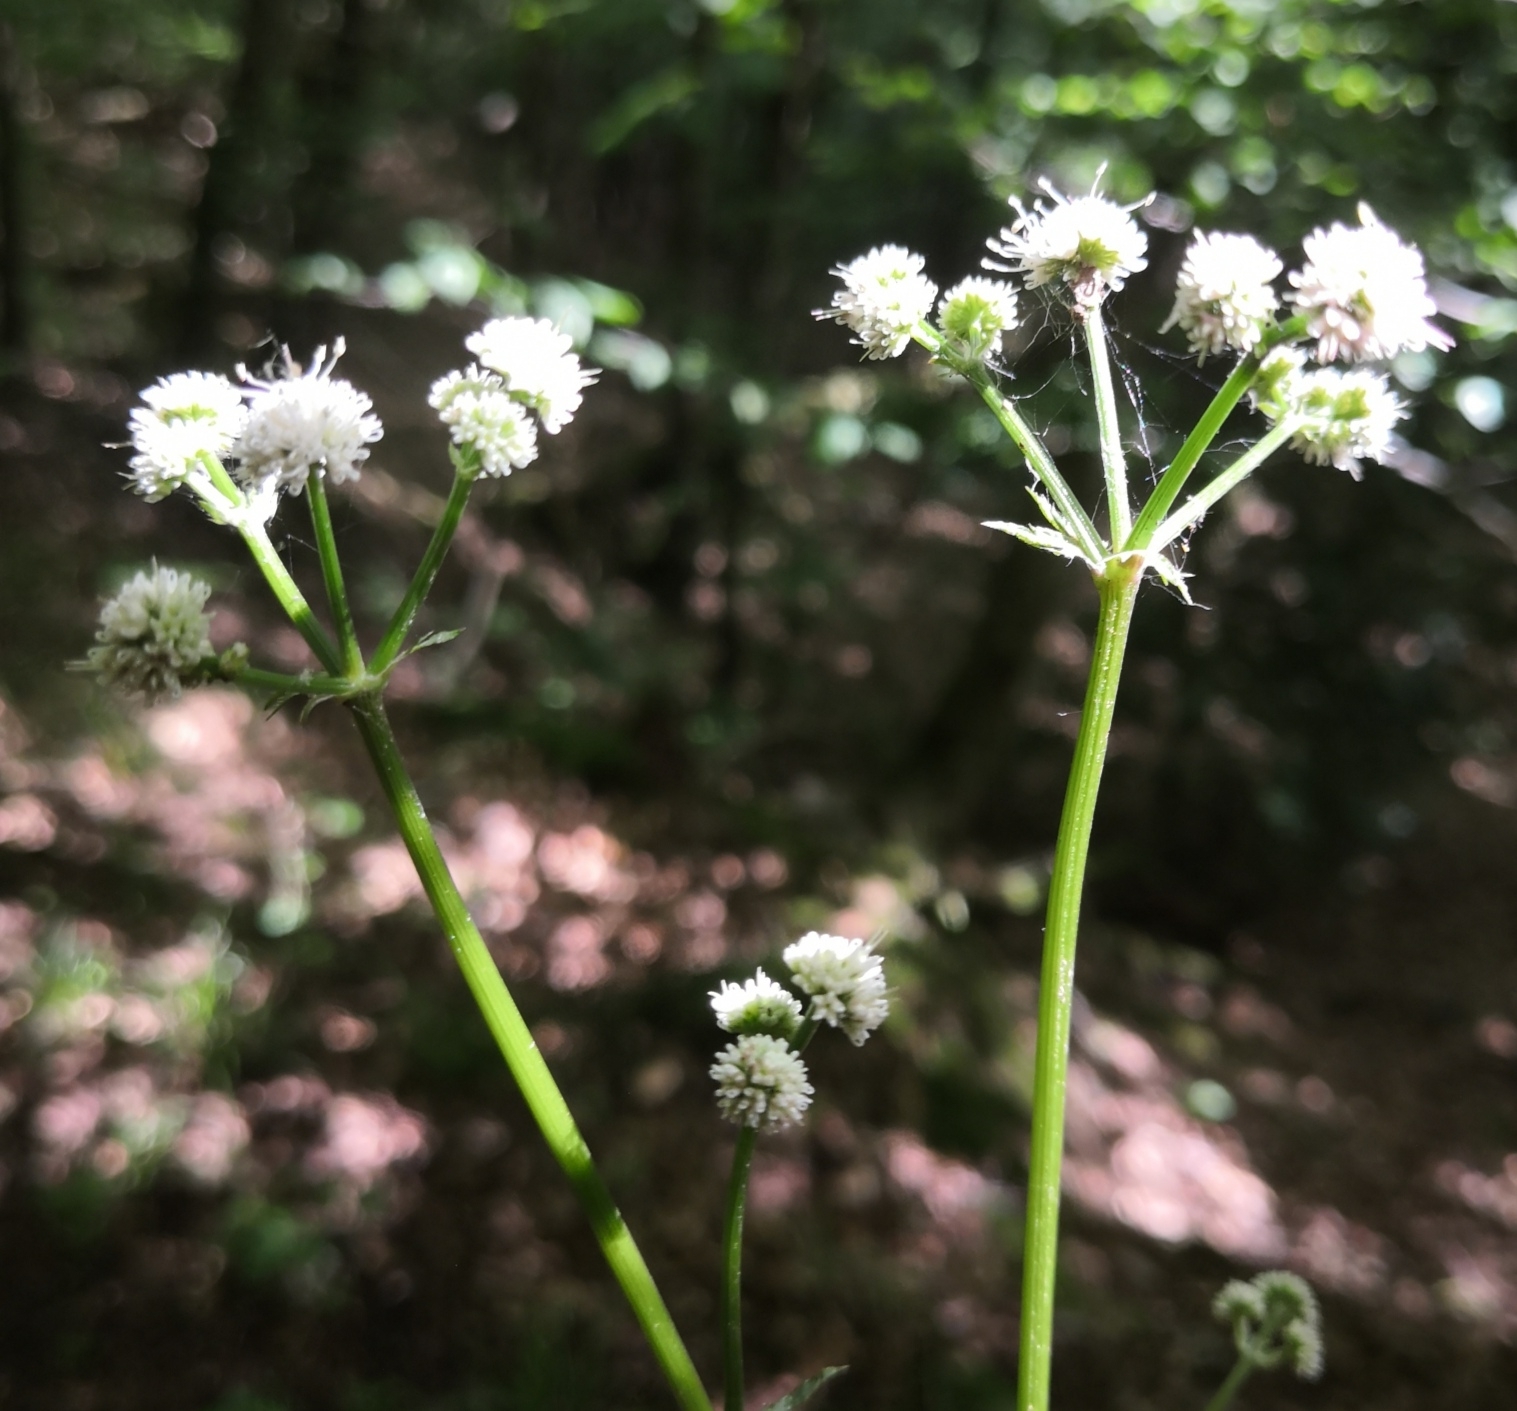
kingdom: Plantae
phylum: Tracheophyta
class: Magnoliopsida
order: Apiales
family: Apiaceae
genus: Sanicula
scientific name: Sanicula europaea
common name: Sanicle
